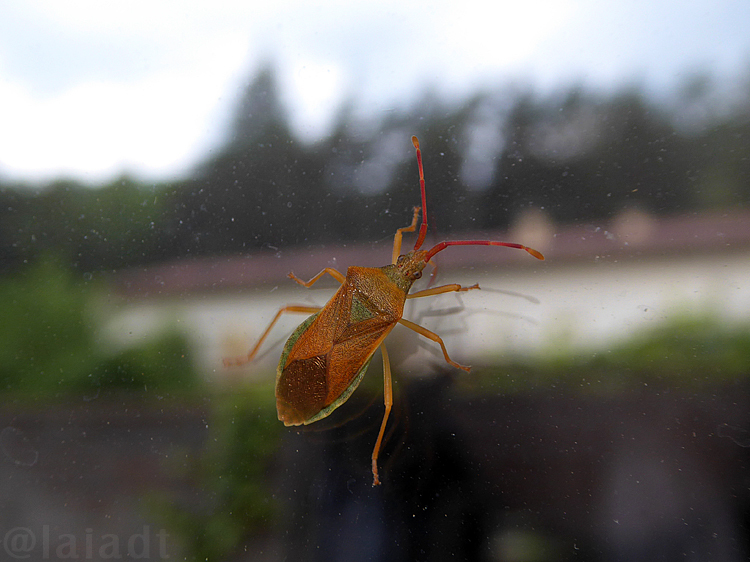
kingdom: Animalia
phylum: Arthropoda
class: Insecta
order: Hemiptera
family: Coreidae
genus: Gonocerus
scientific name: Gonocerus acuteangulatus
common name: Box bug
